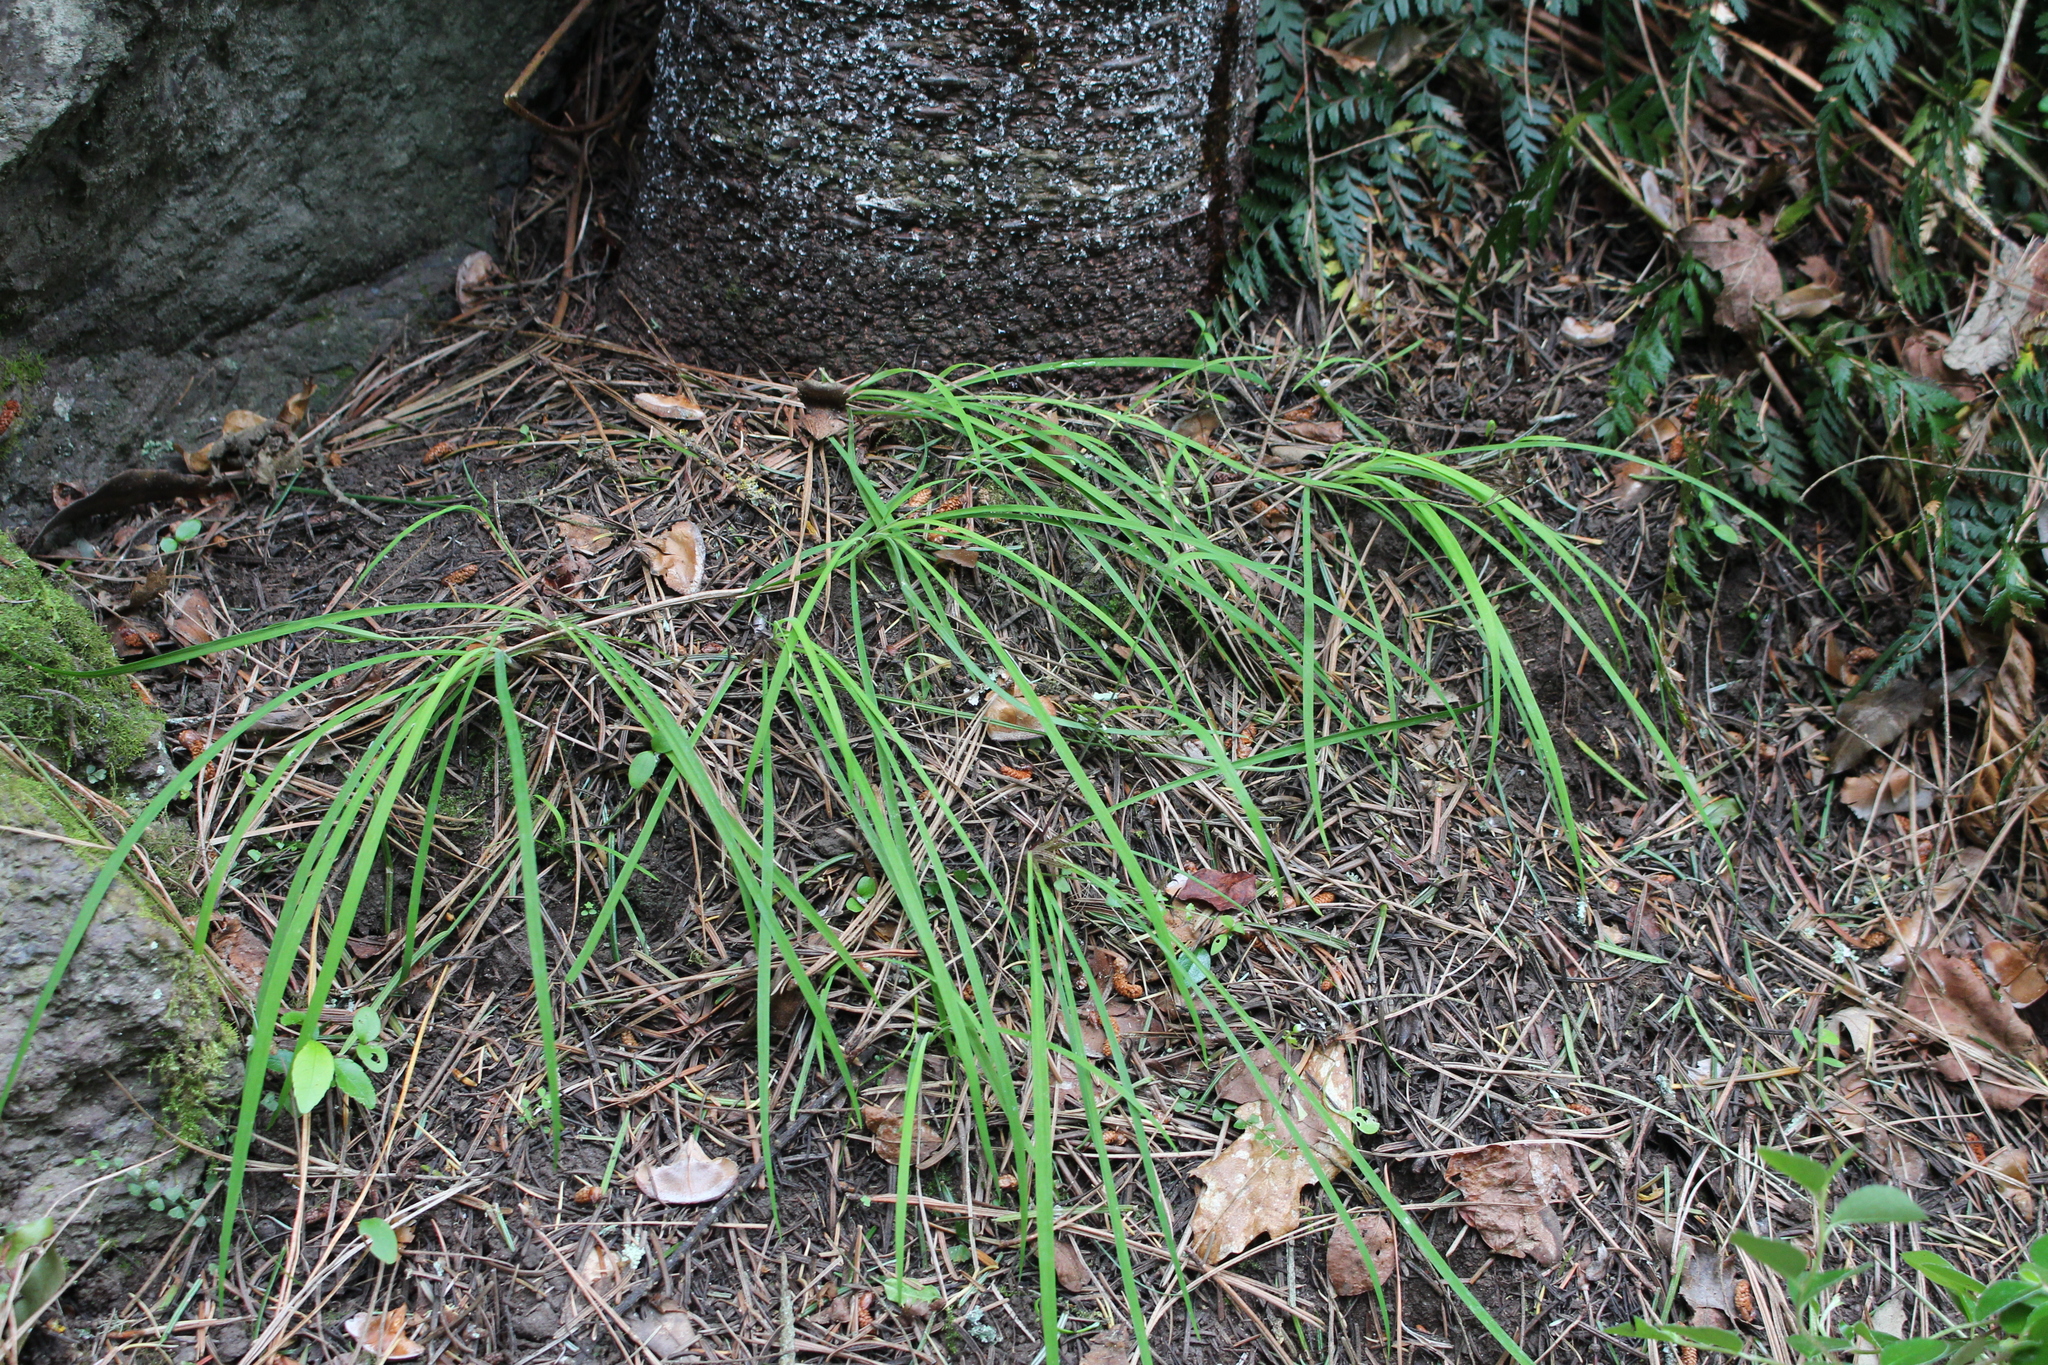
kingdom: Plantae
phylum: Tracheophyta
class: Liliopsida
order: Asparagales
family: Asparagaceae
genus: Arthropodium
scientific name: Arthropodium candidum
